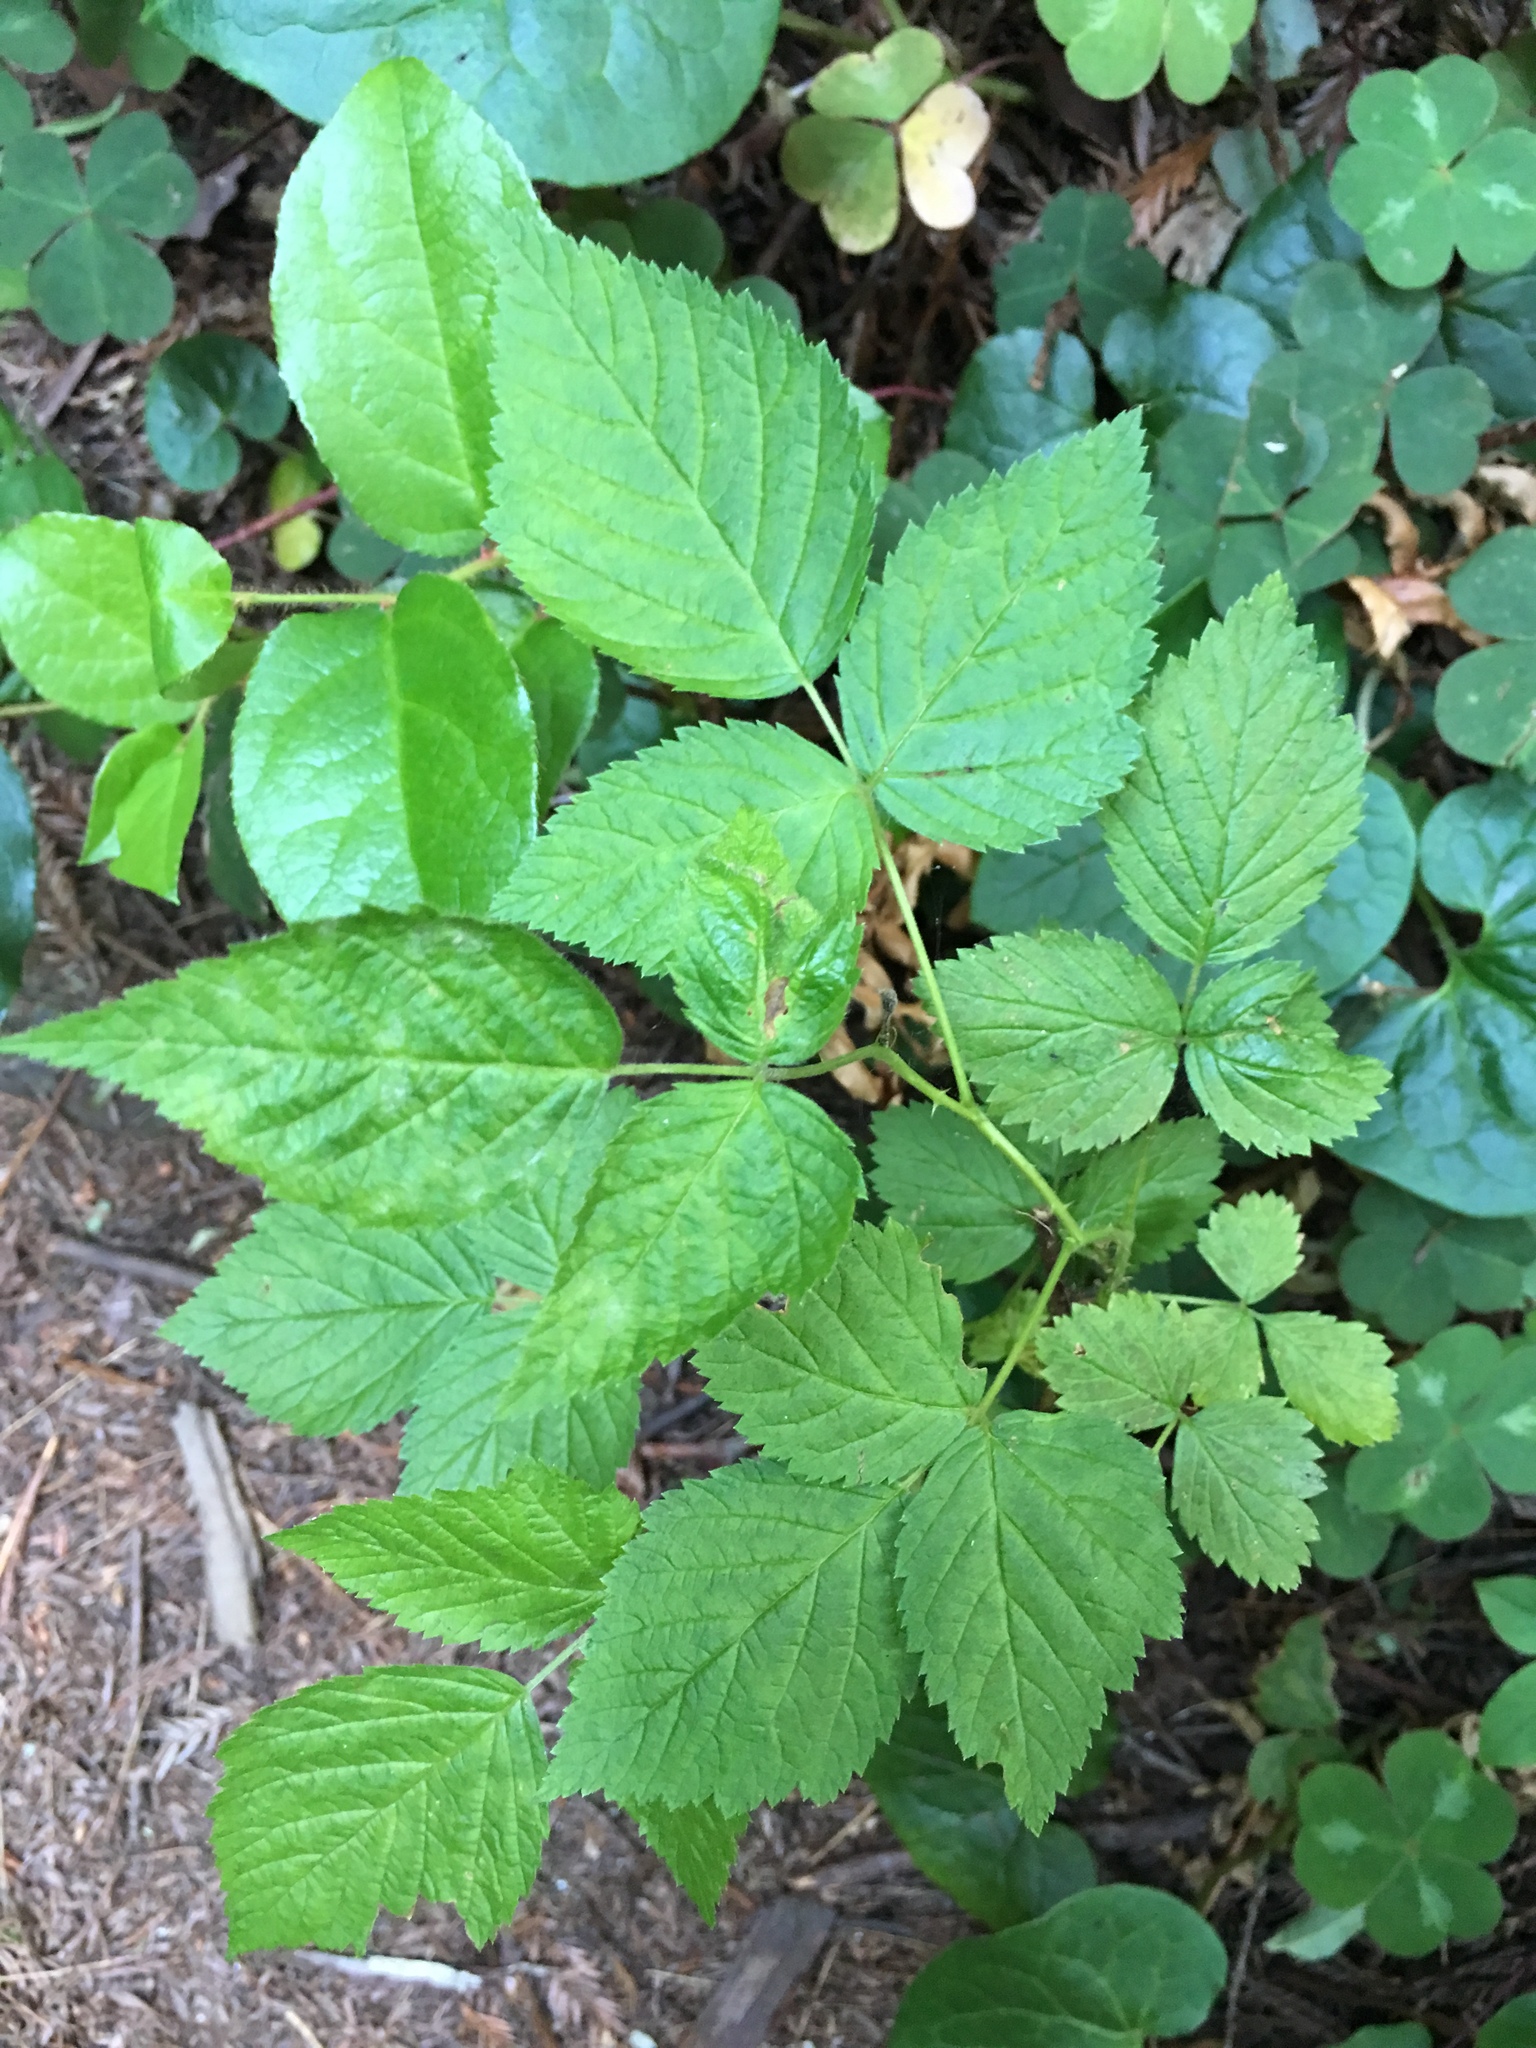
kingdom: Plantae
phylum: Tracheophyta
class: Magnoliopsida
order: Rosales
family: Rosaceae
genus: Rubus
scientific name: Rubus spectabilis
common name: Salmonberry
